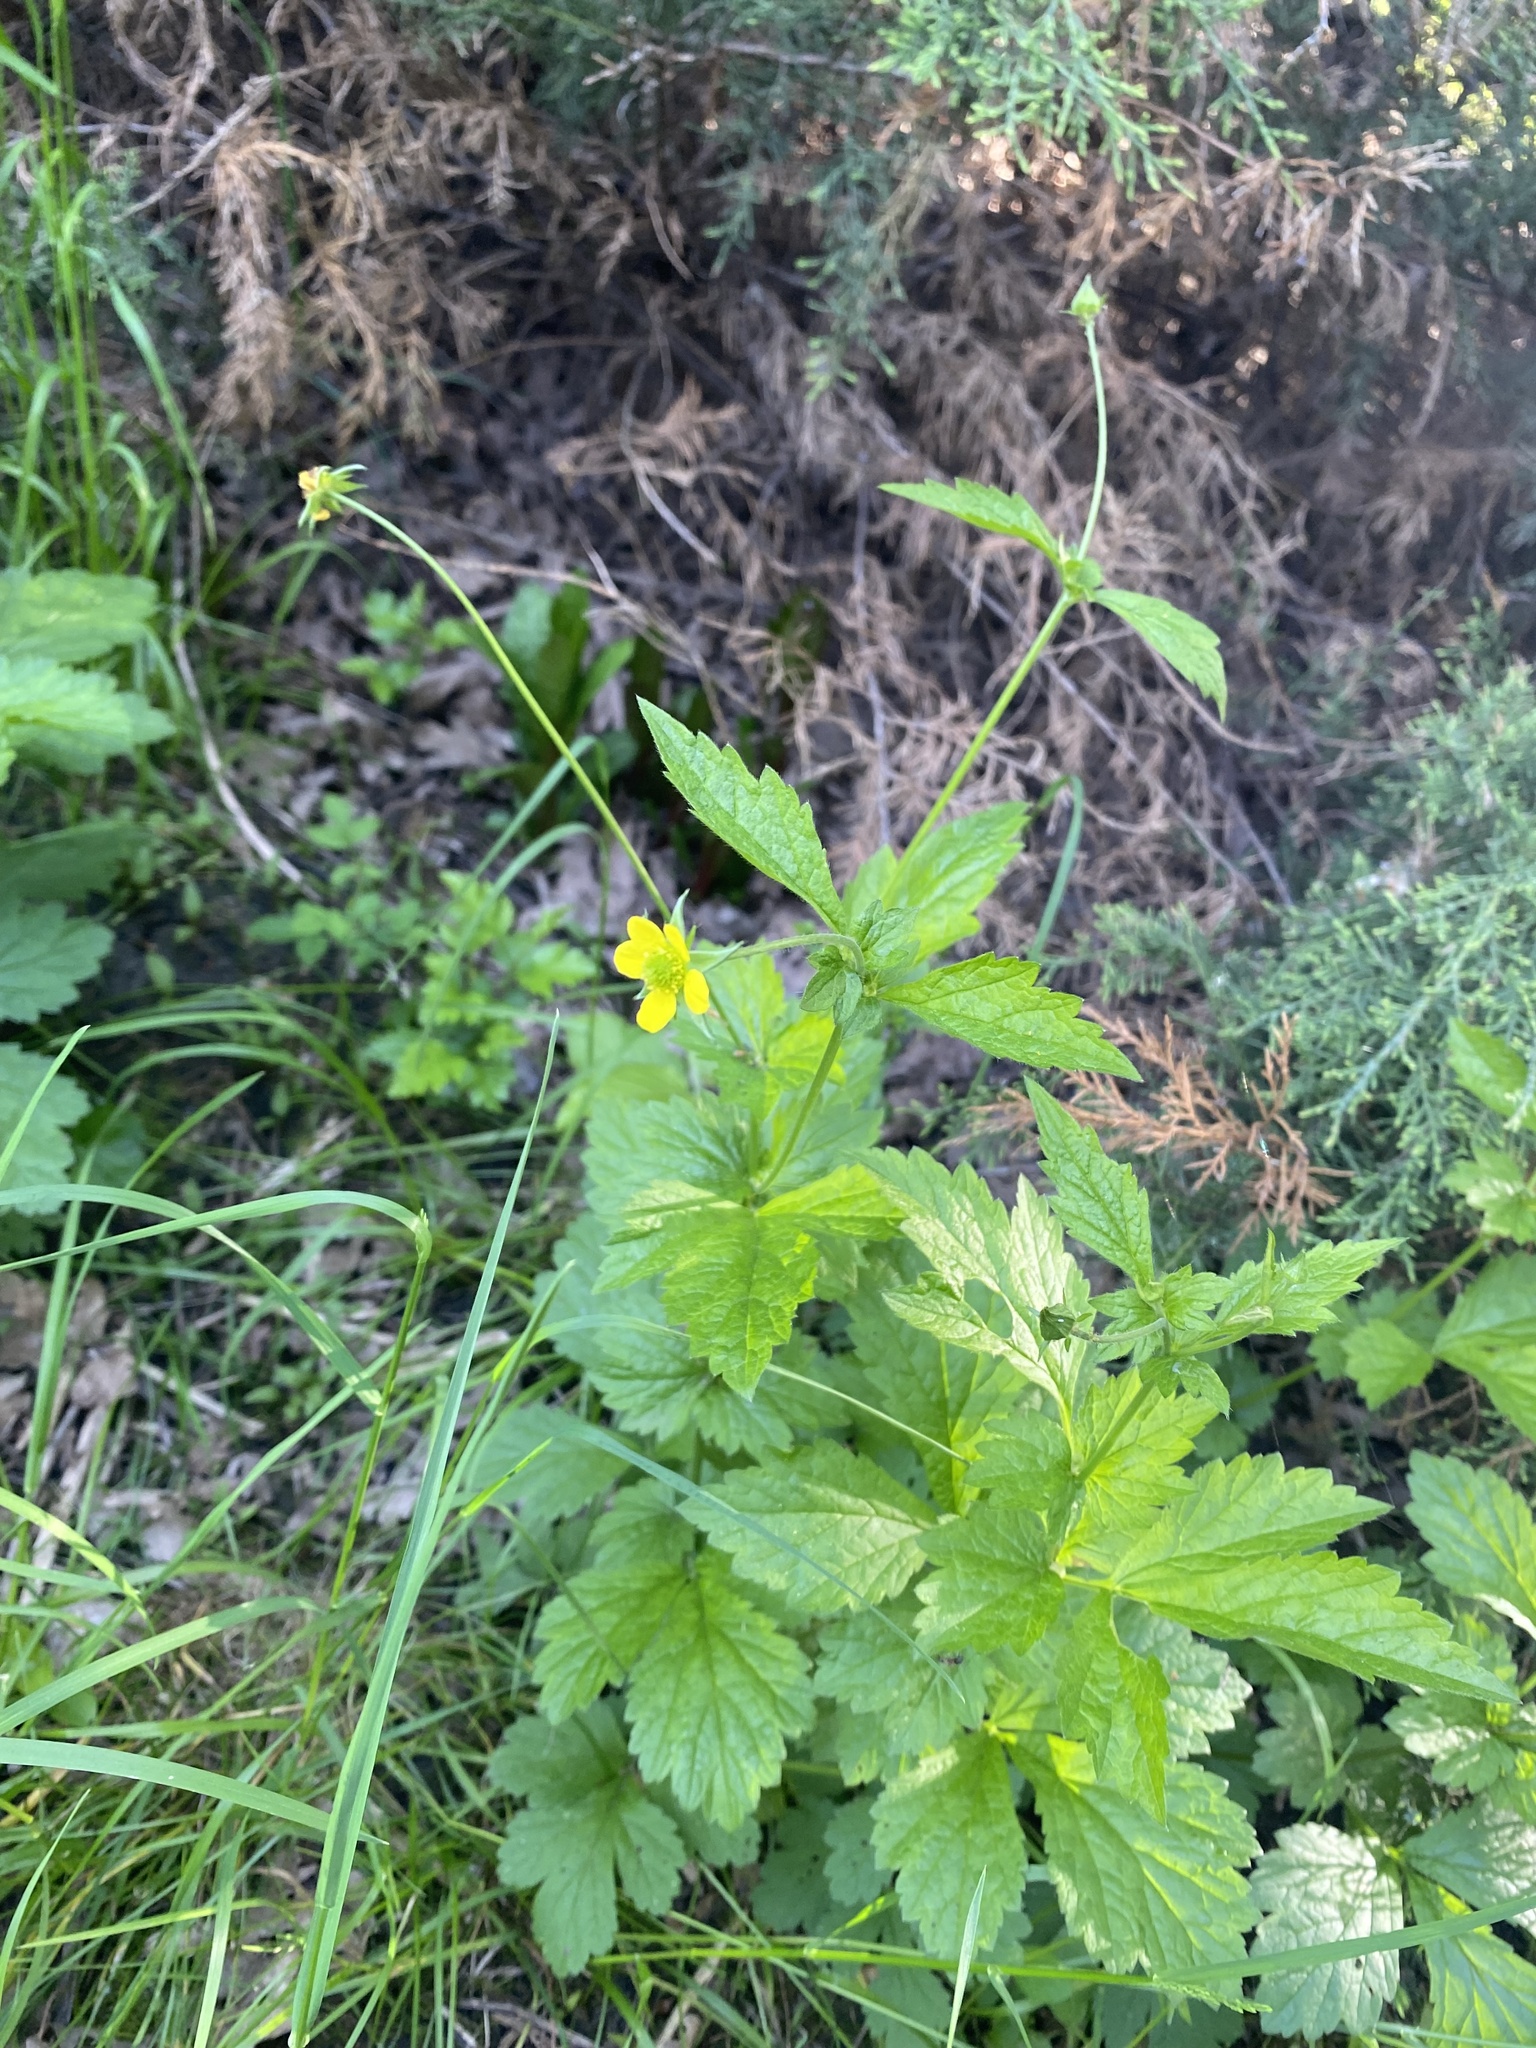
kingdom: Plantae
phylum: Tracheophyta
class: Magnoliopsida
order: Rosales
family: Rosaceae
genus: Geum
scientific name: Geum urbanum
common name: Wood avens
